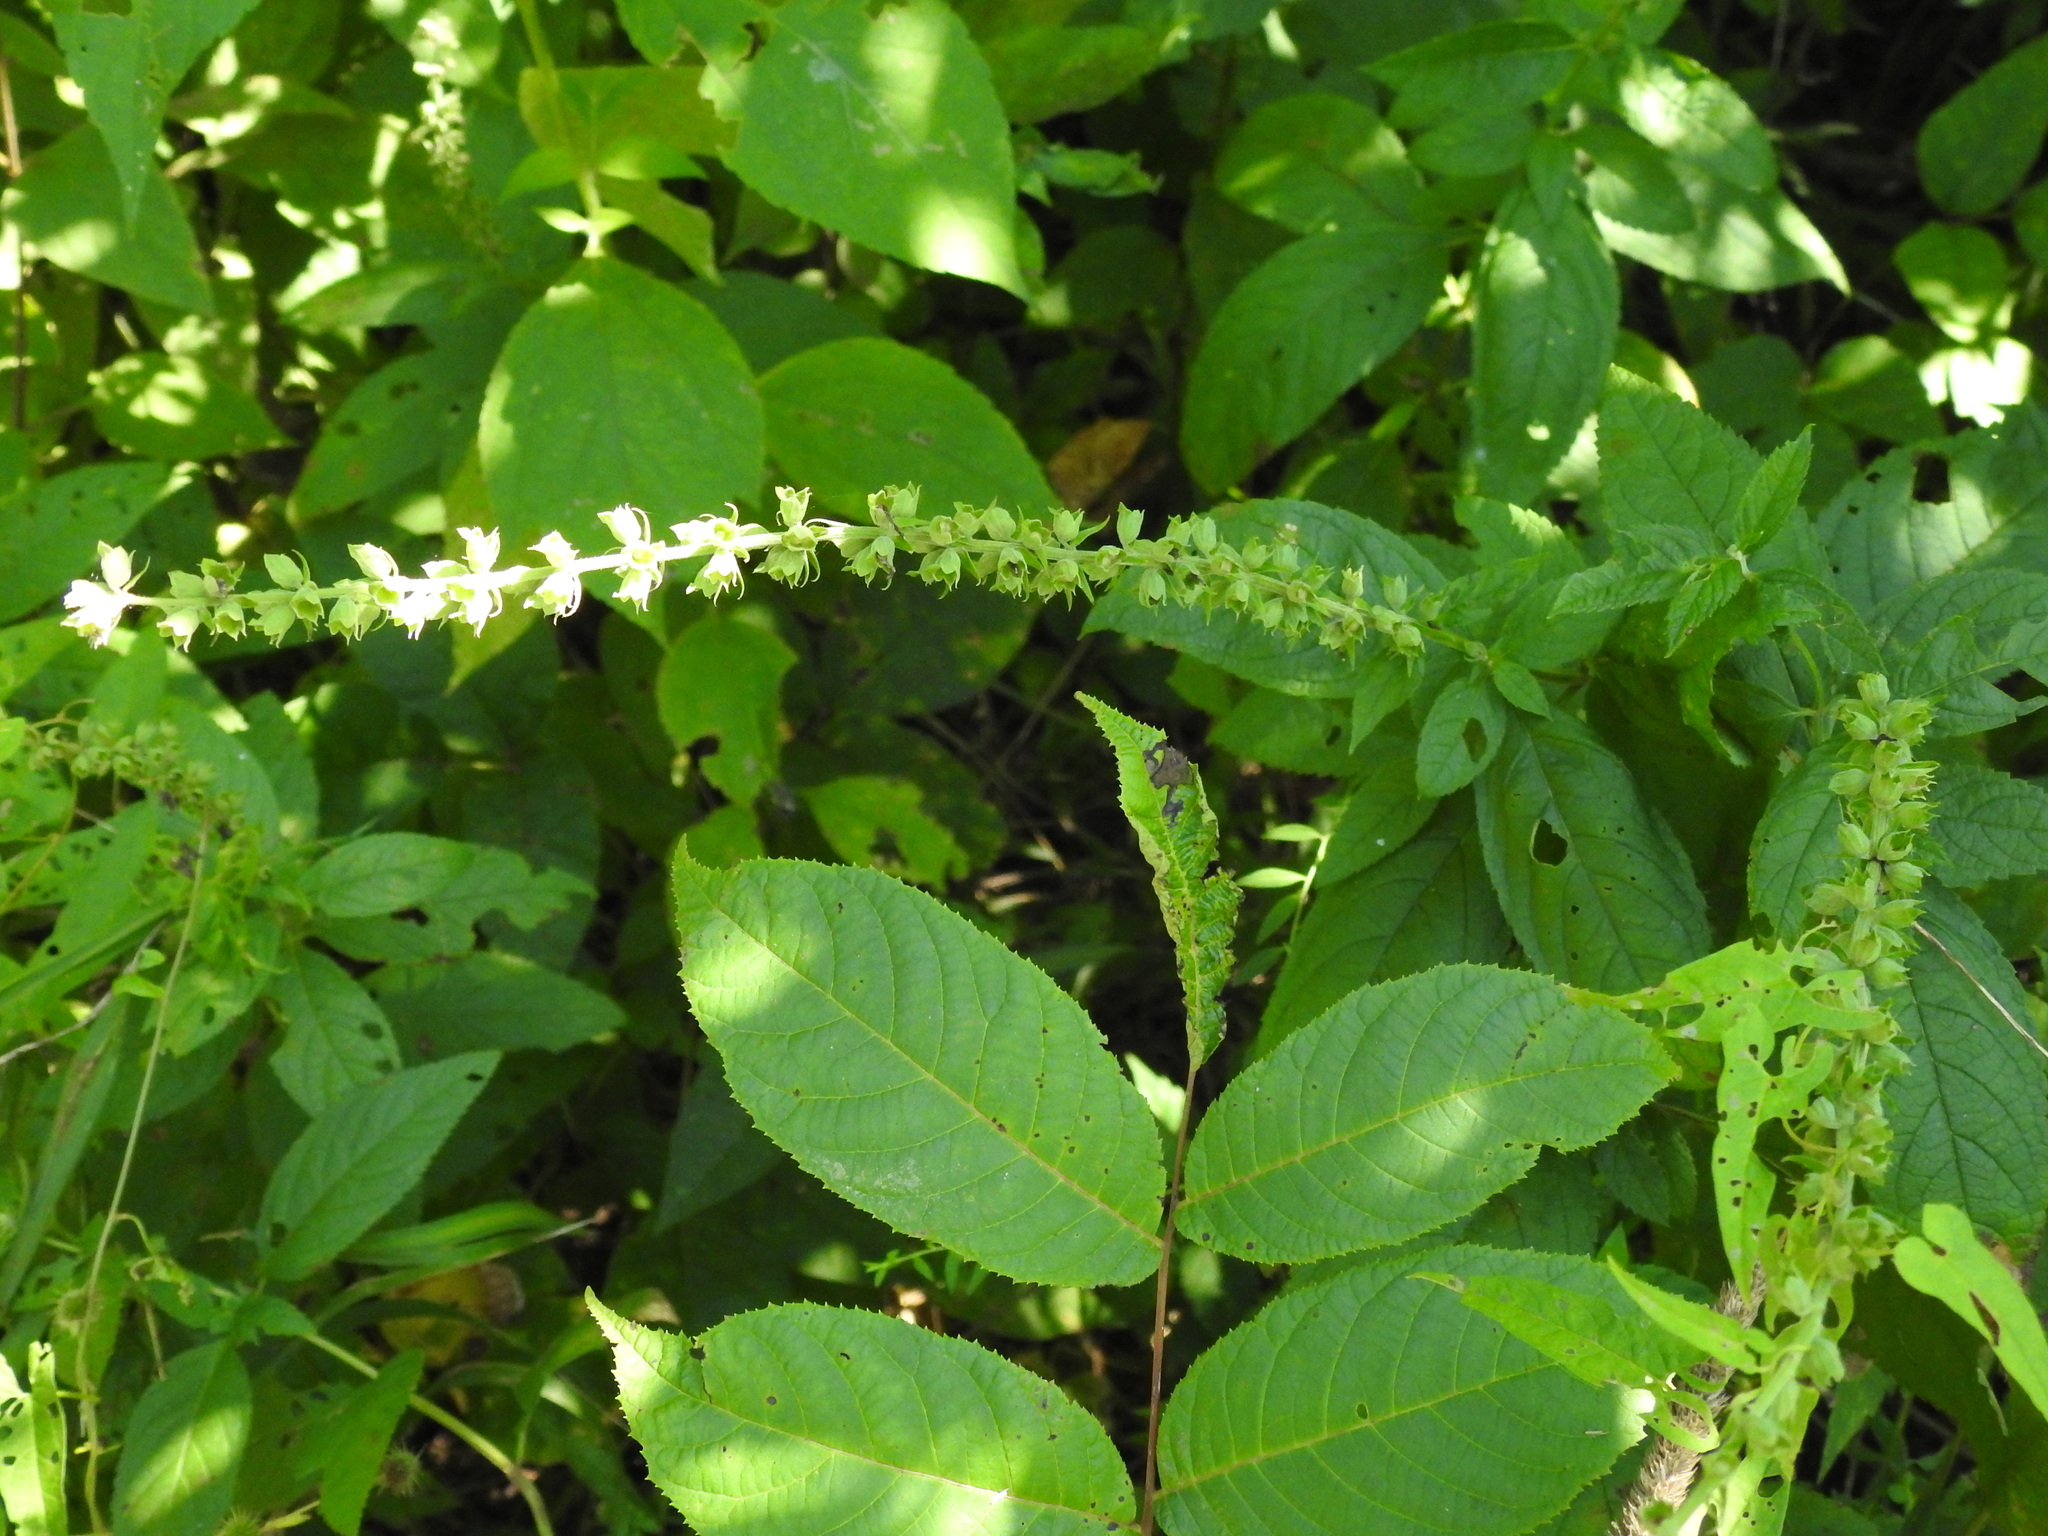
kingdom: Plantae
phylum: Tracheophyta
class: Magnoliopsida
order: Lamiales
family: Lamiaceae
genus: Teucrium
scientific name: Teucrium canadense
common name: American germander
